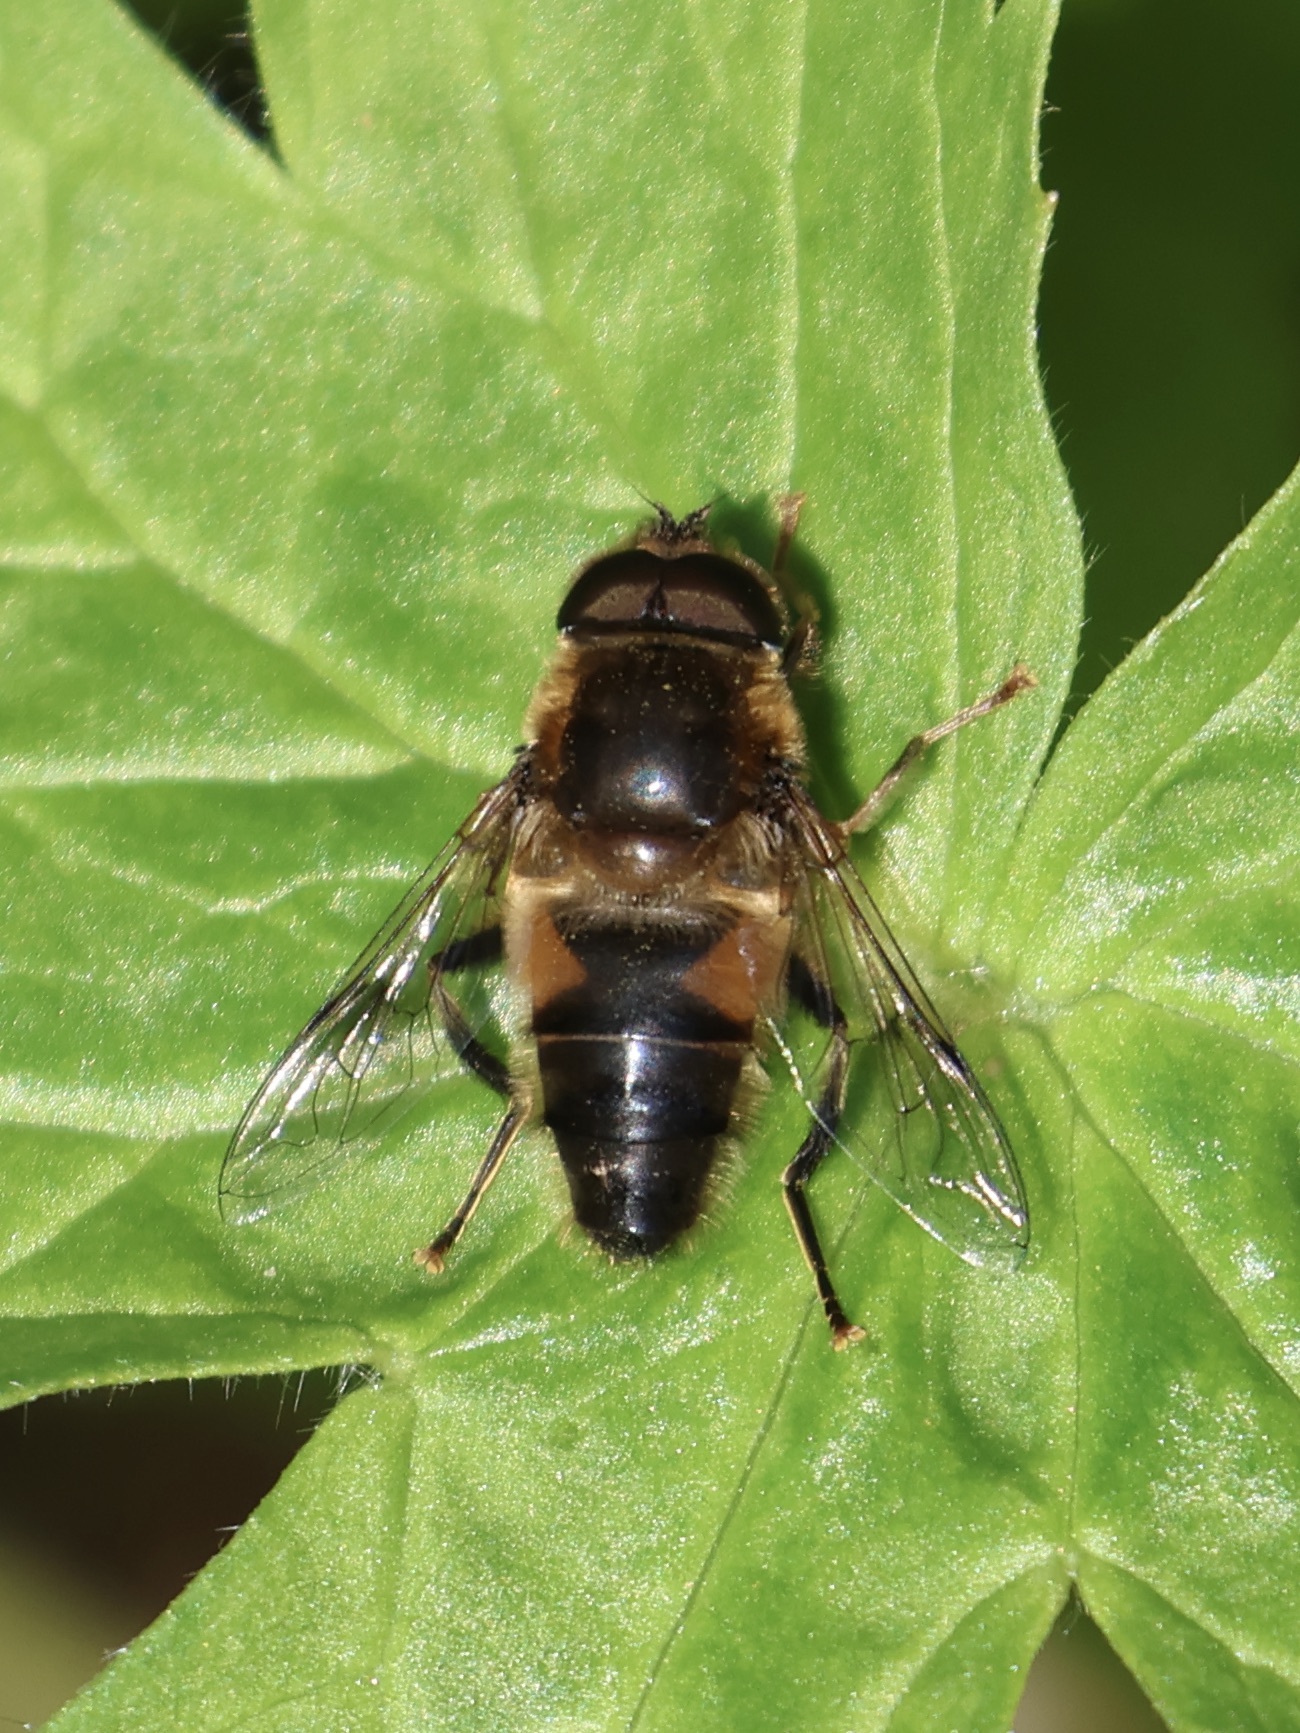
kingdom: Animalia
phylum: Arthropoda
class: Insecta
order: Diptera
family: Syrphidae
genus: Eristalis
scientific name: Eristalis pertinax
